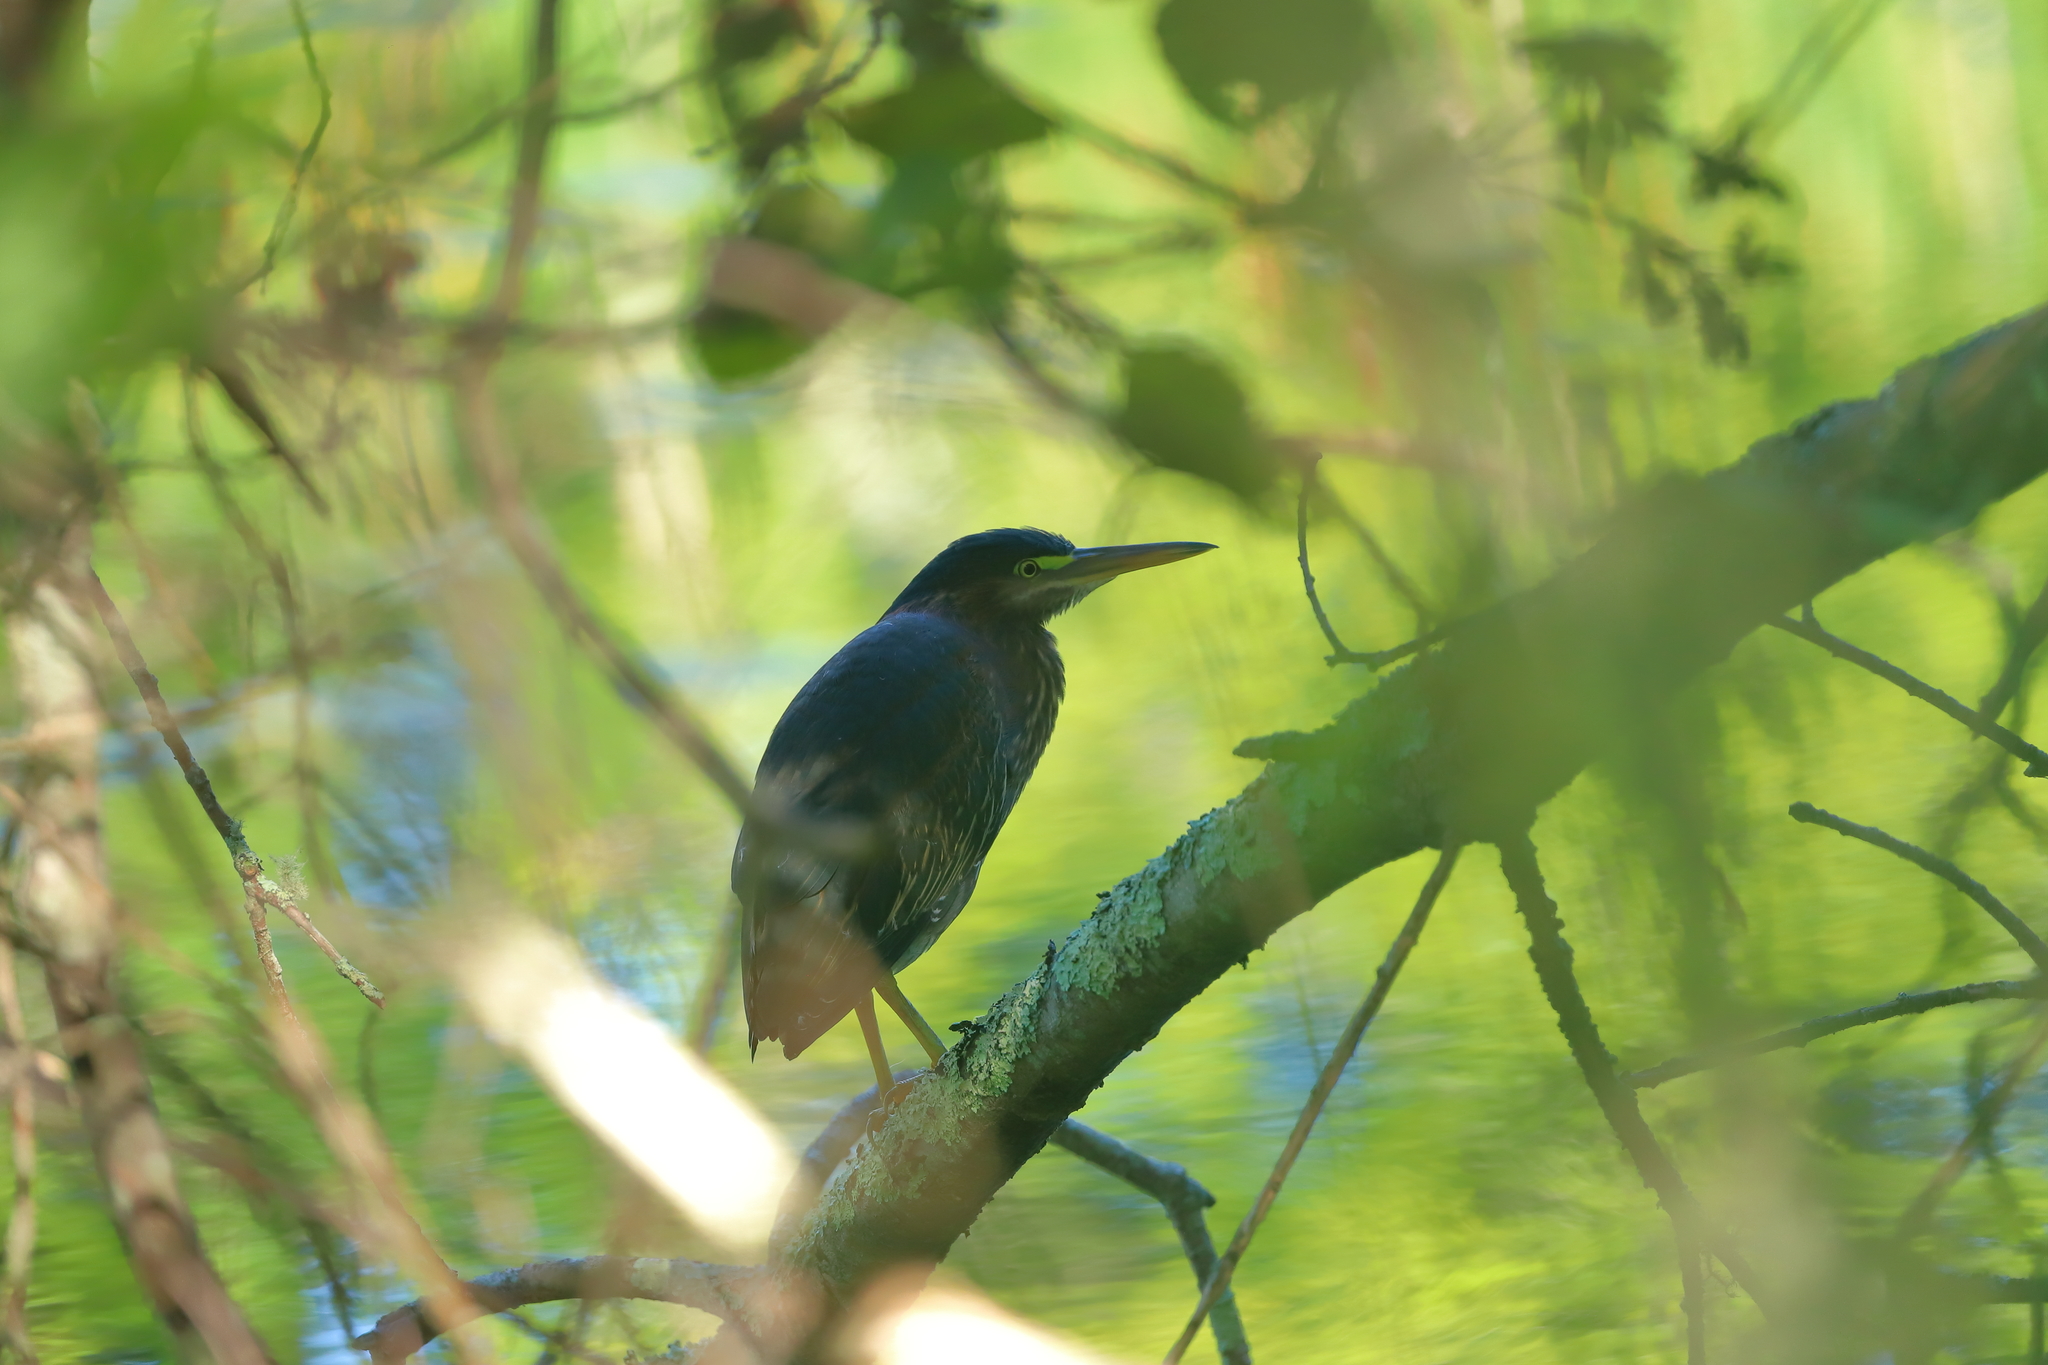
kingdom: Animalia
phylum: Chordata
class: Aves
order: Pelecaniformes
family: Ardeidae
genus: Butorides
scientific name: Butorides virescens
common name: Green heron
